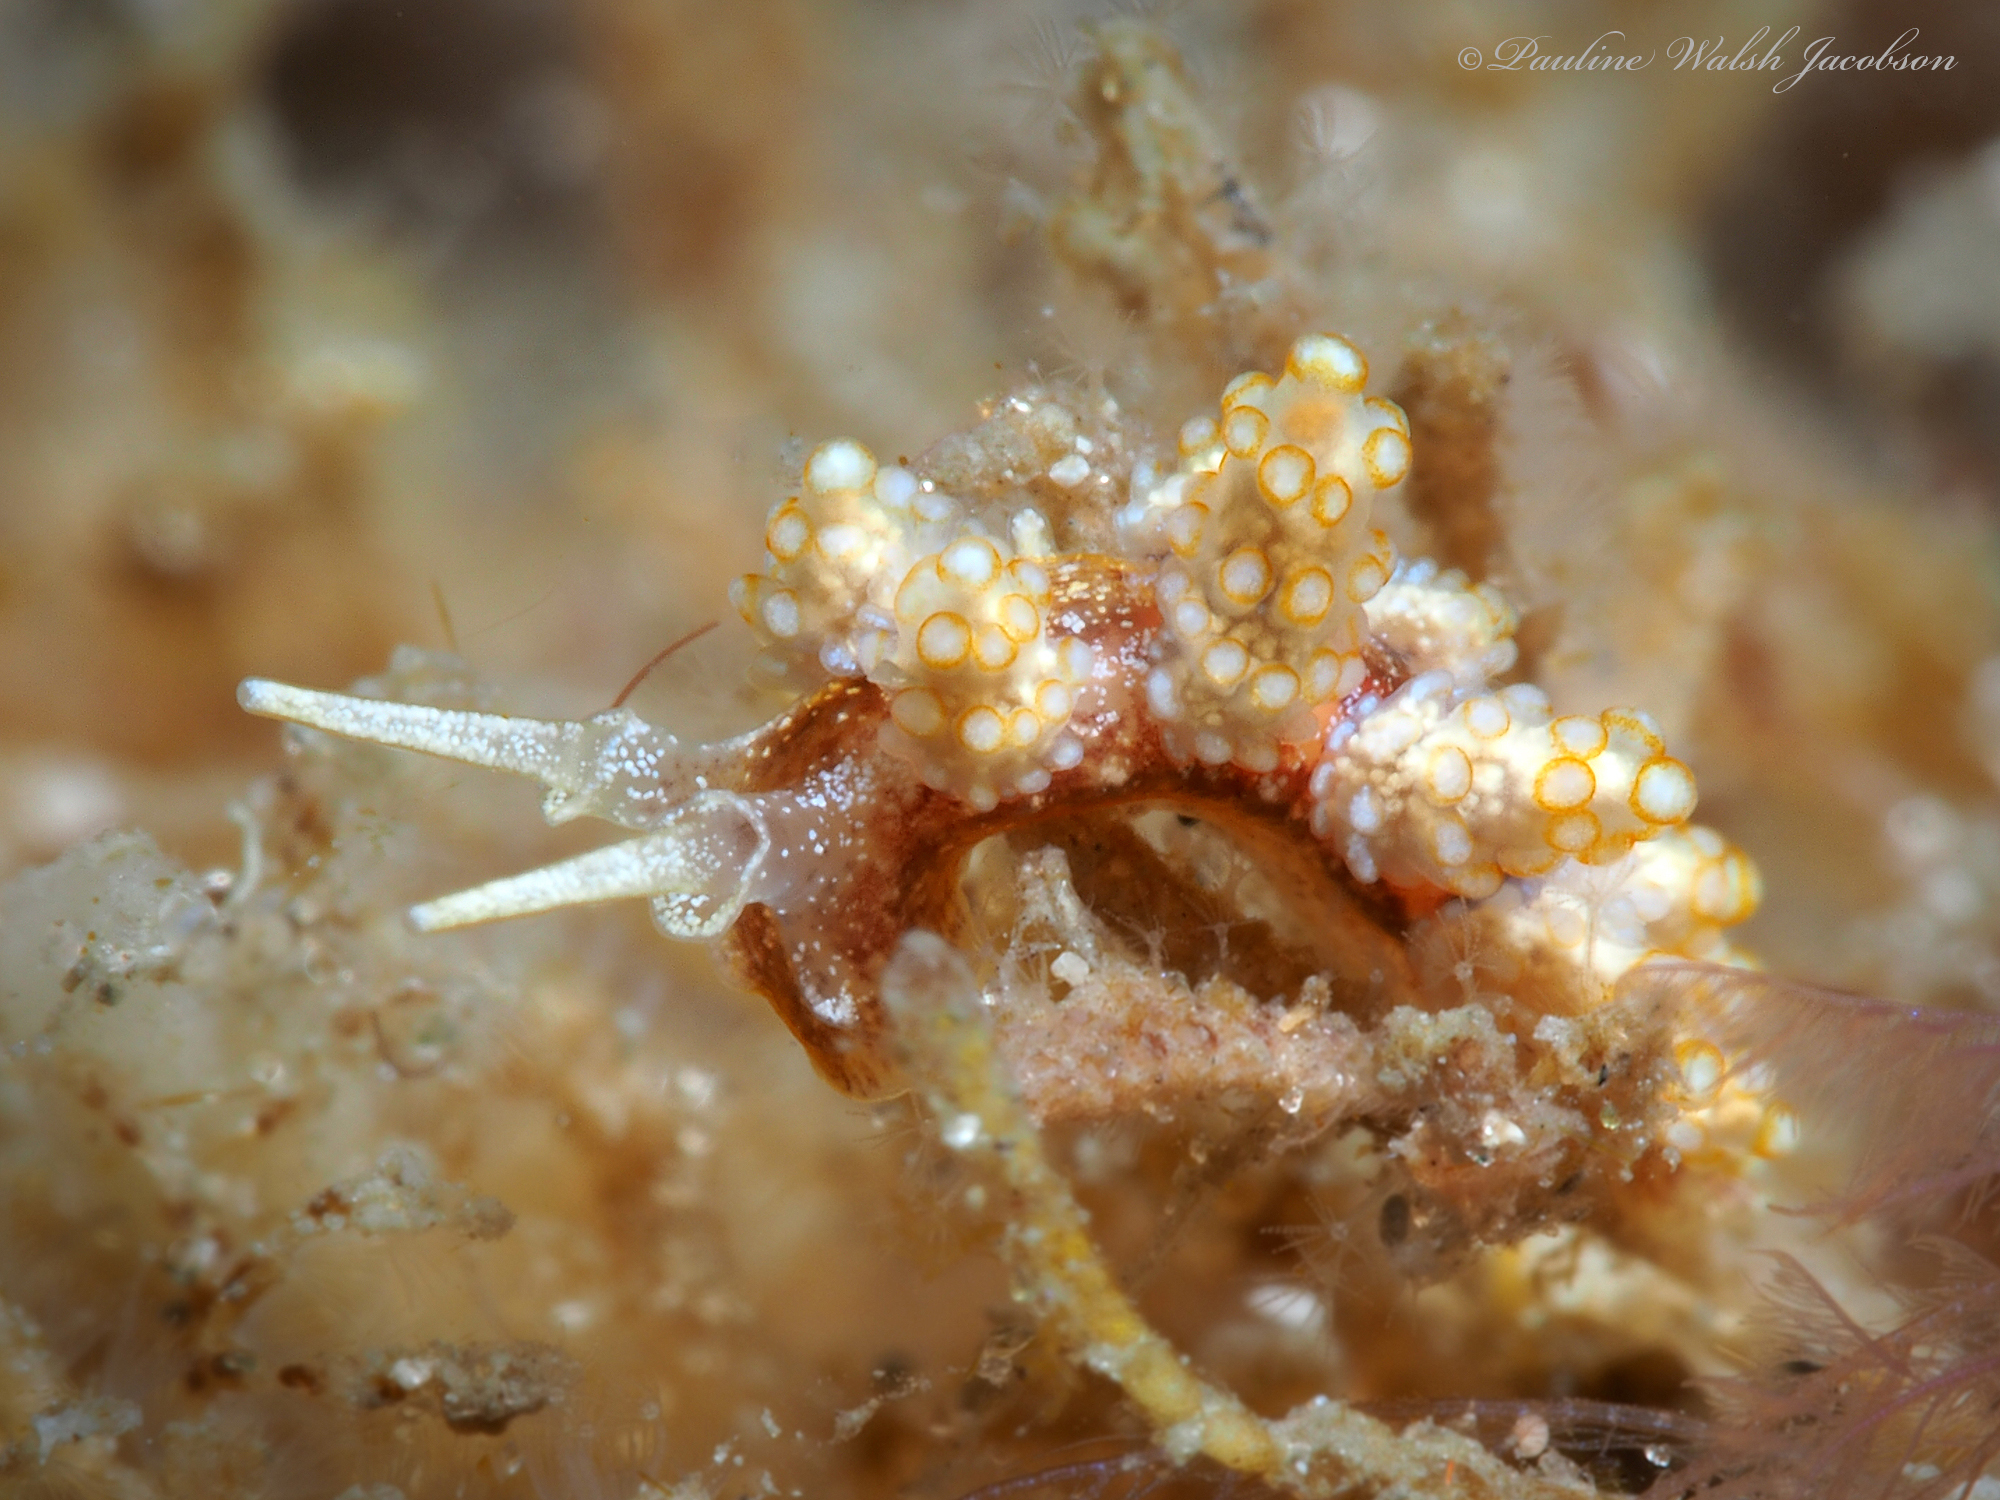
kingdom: Animalia
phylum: Mollusca
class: Gastropoda
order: Nudibranchia
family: Dotidae
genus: Doto
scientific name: Doto torrelavega
